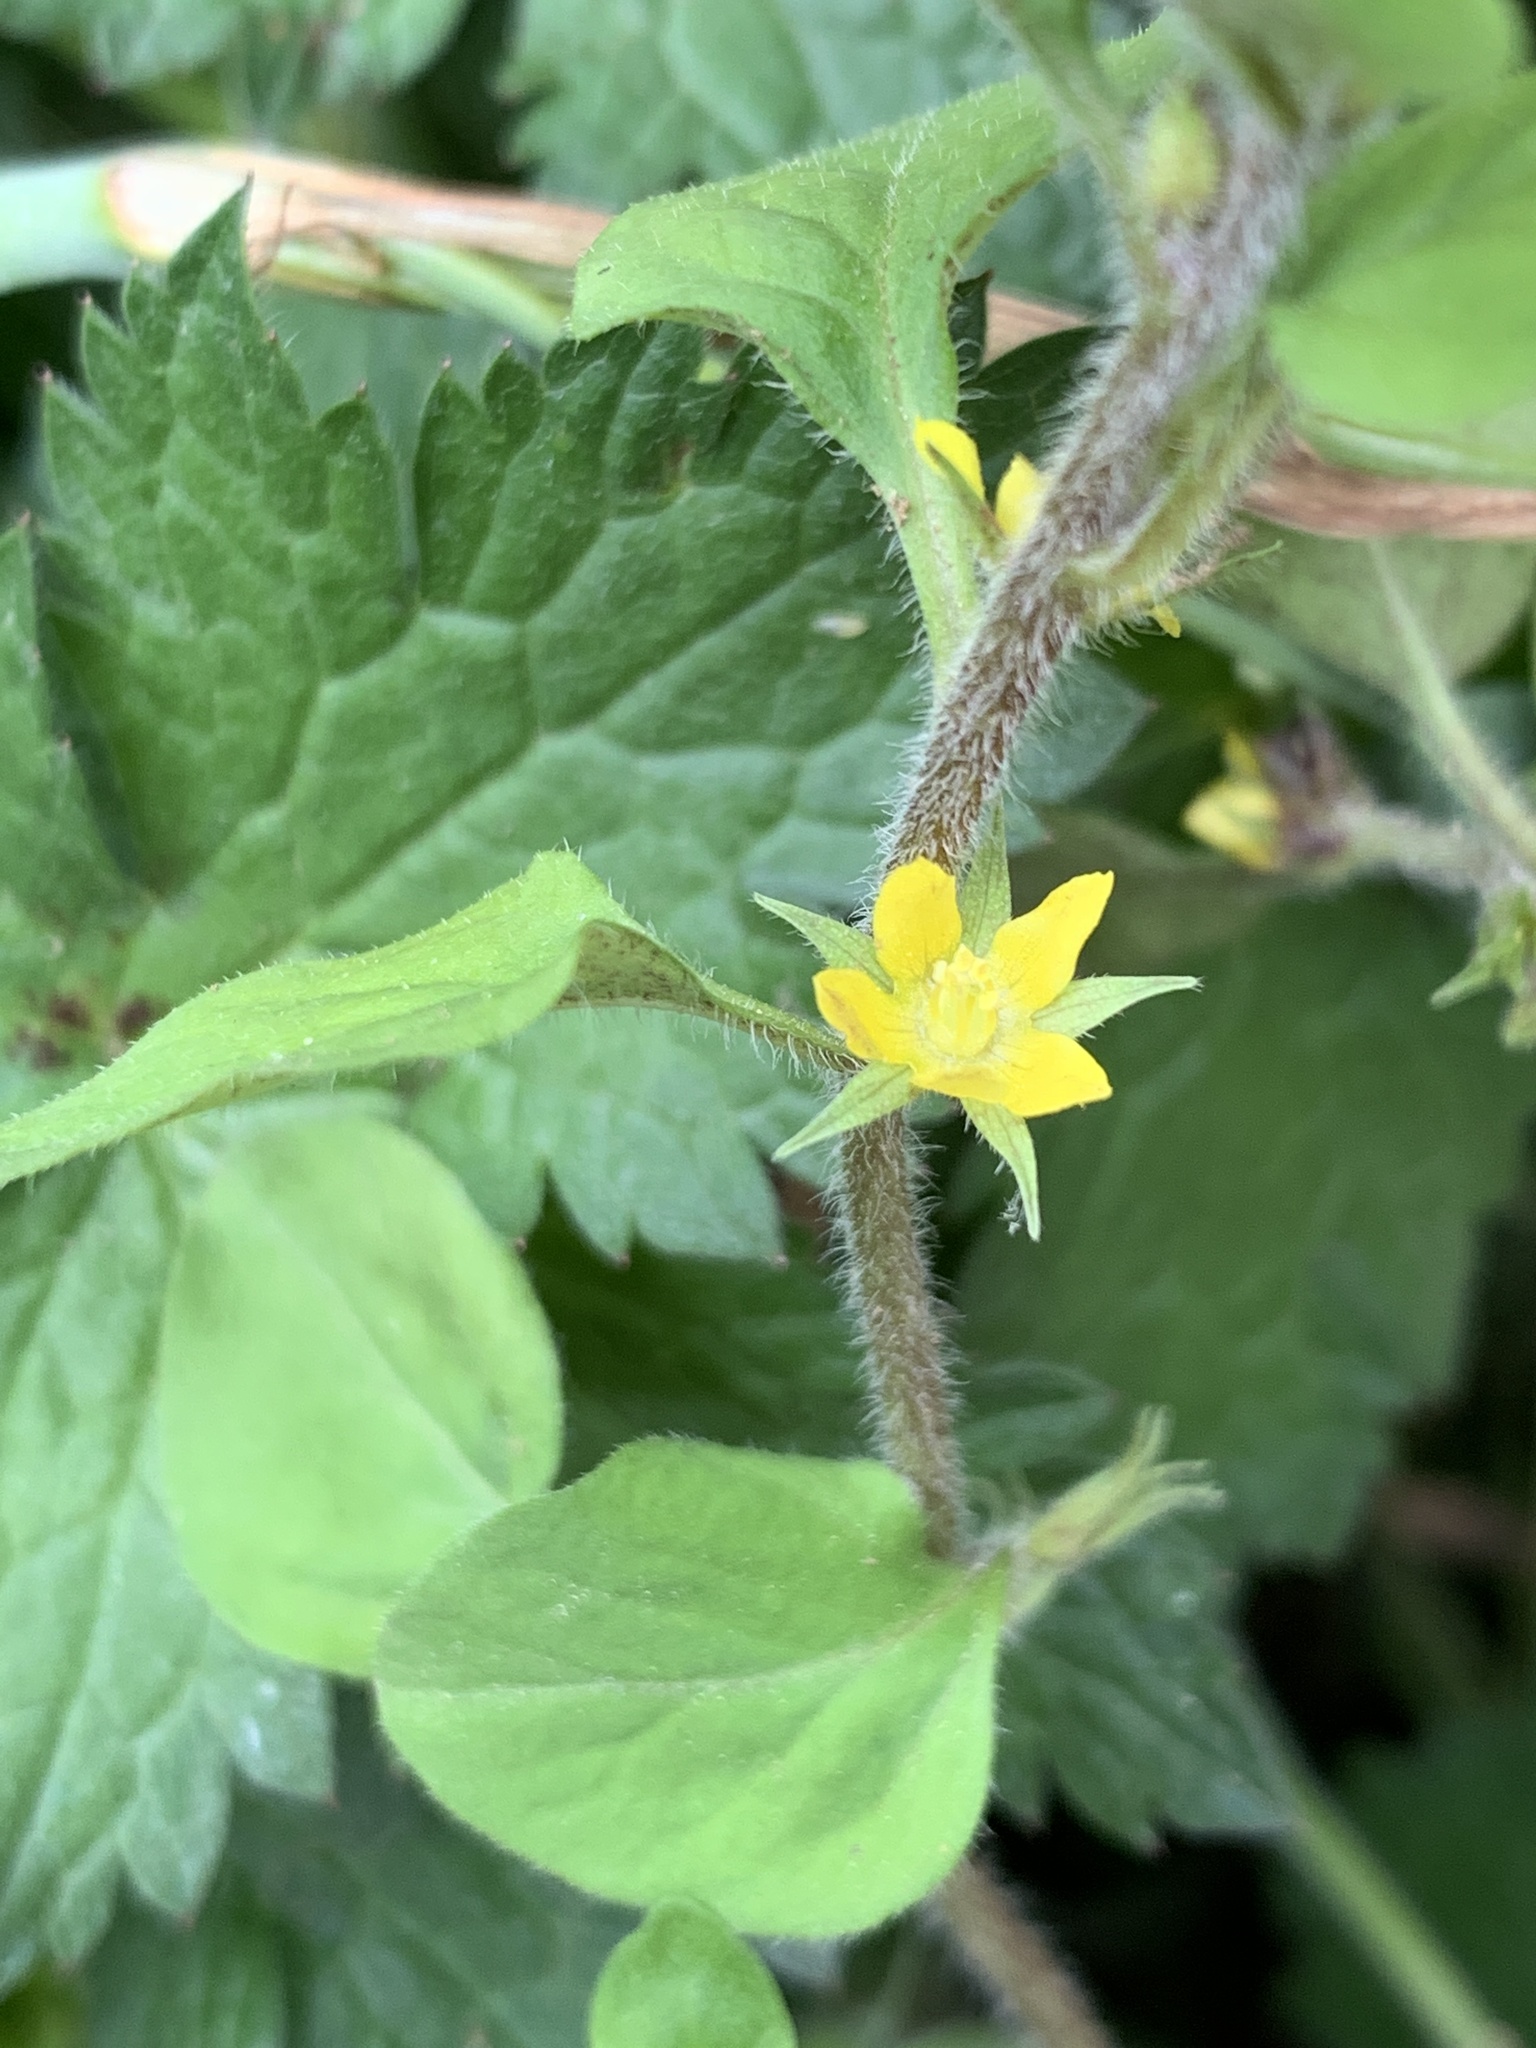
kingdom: Plantae
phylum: Tracheophyta
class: Magnoliopsida
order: Ericales
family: Primulaceae
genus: Lysimachia
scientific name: Lysimachia japonica
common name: Japanese yellow loosestrife
